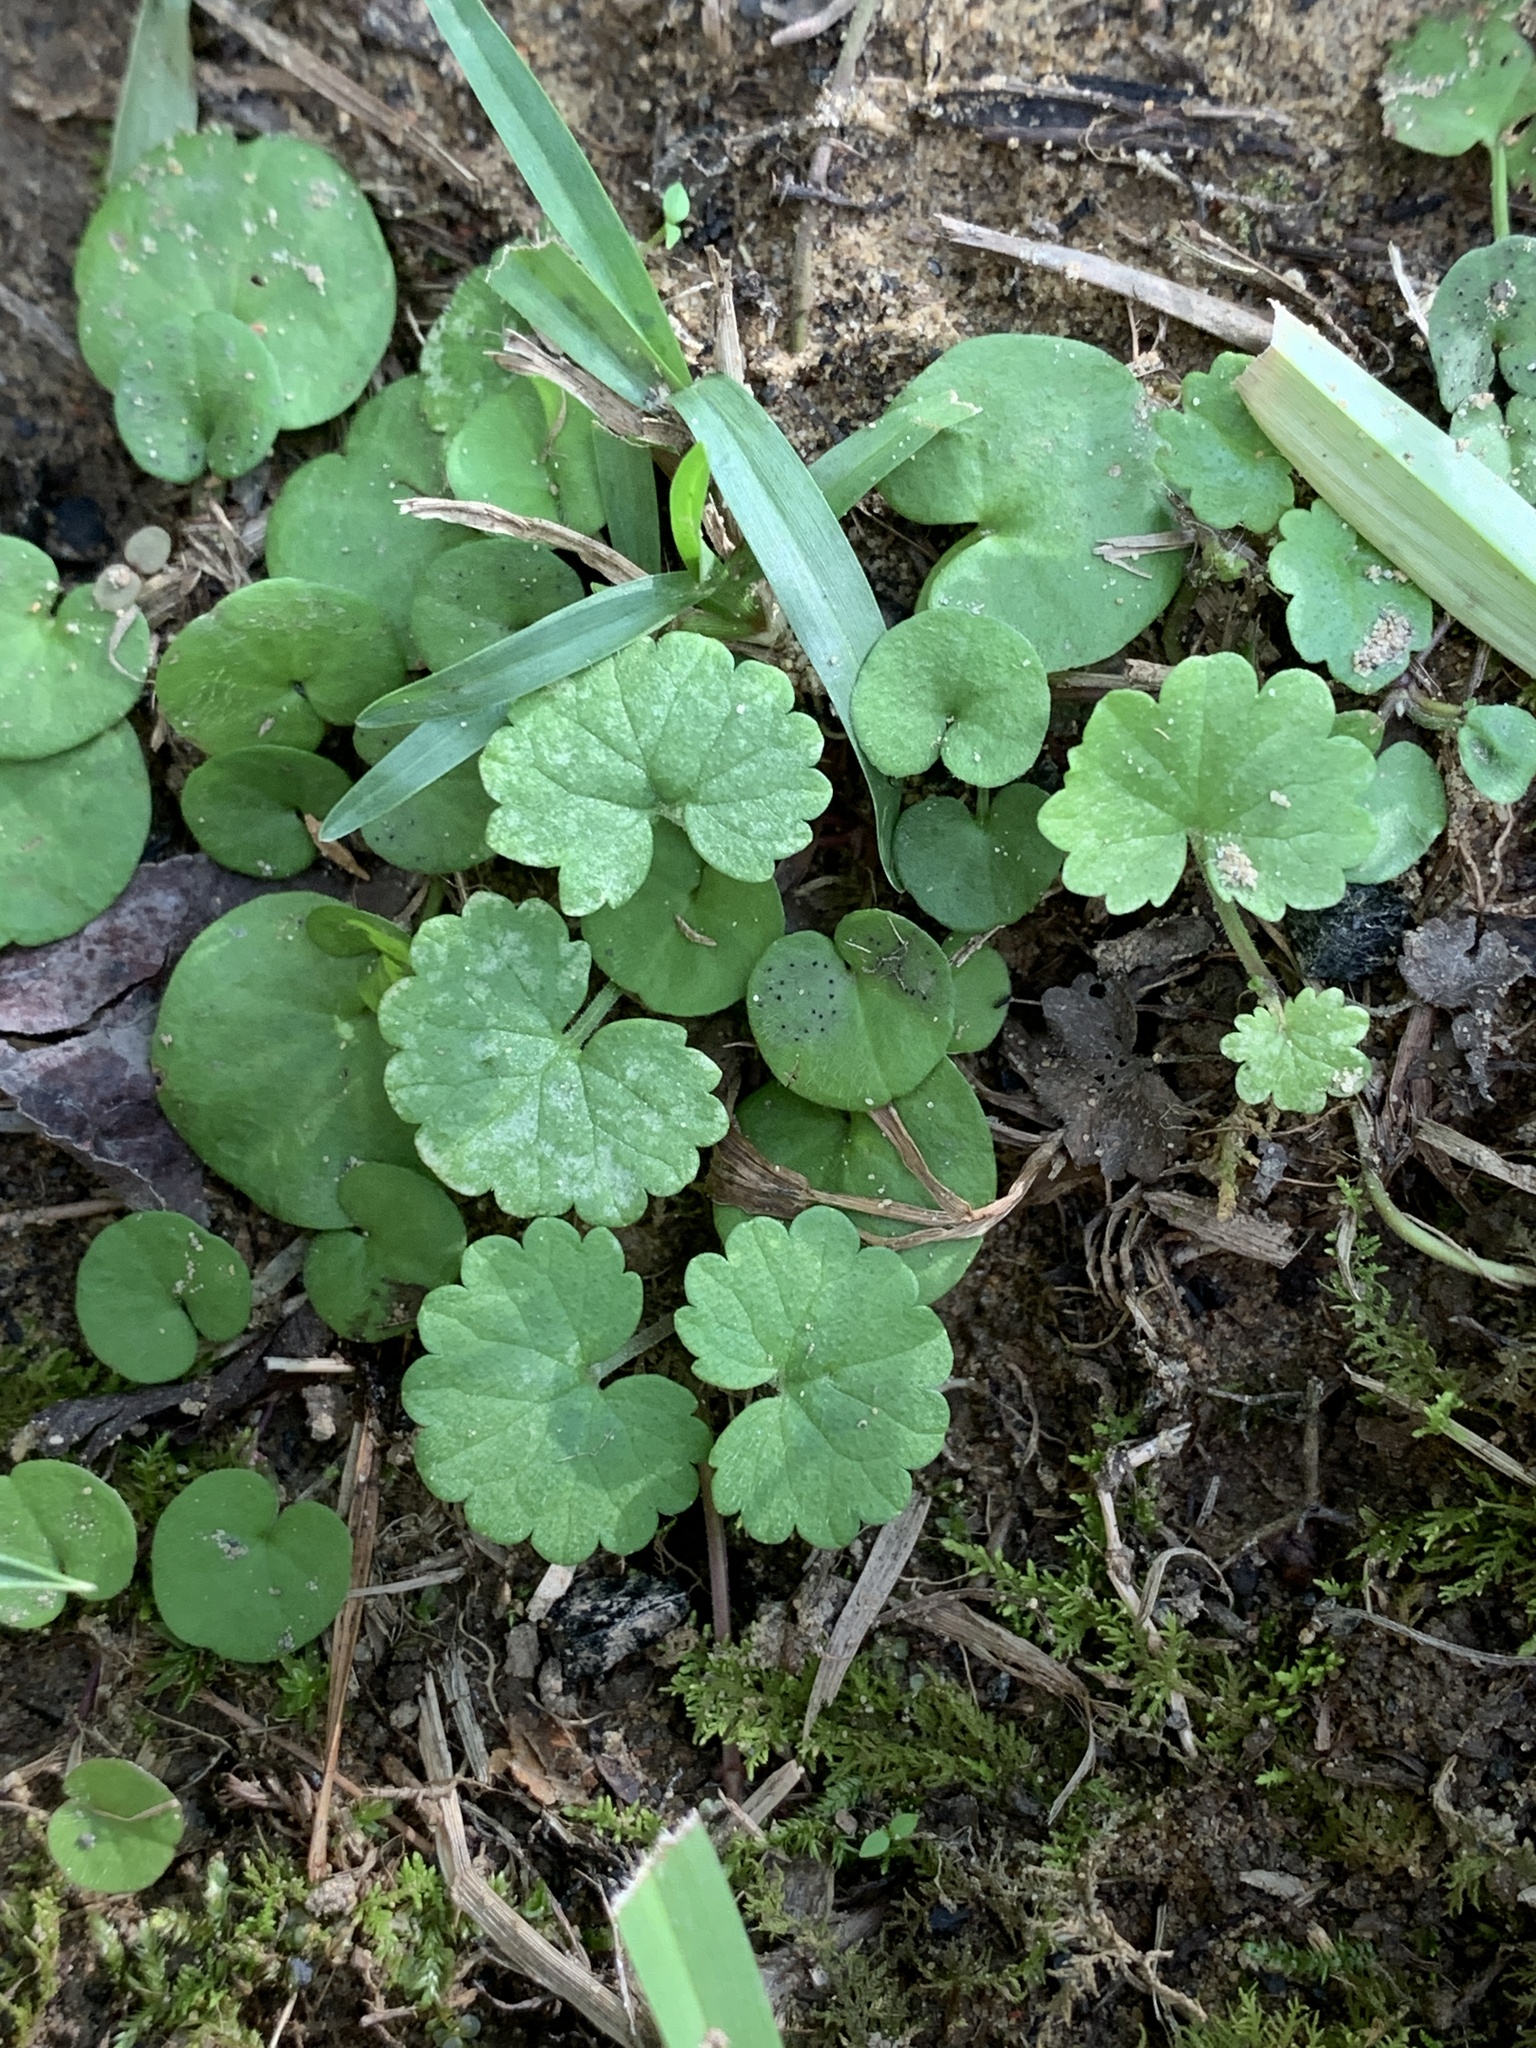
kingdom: Plantae
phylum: Tracheophyta
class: Magnoliopsida
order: Lamiales
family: Lamiaceae
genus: Glechoma
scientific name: Glechoma hederacea
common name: Ground ivy
